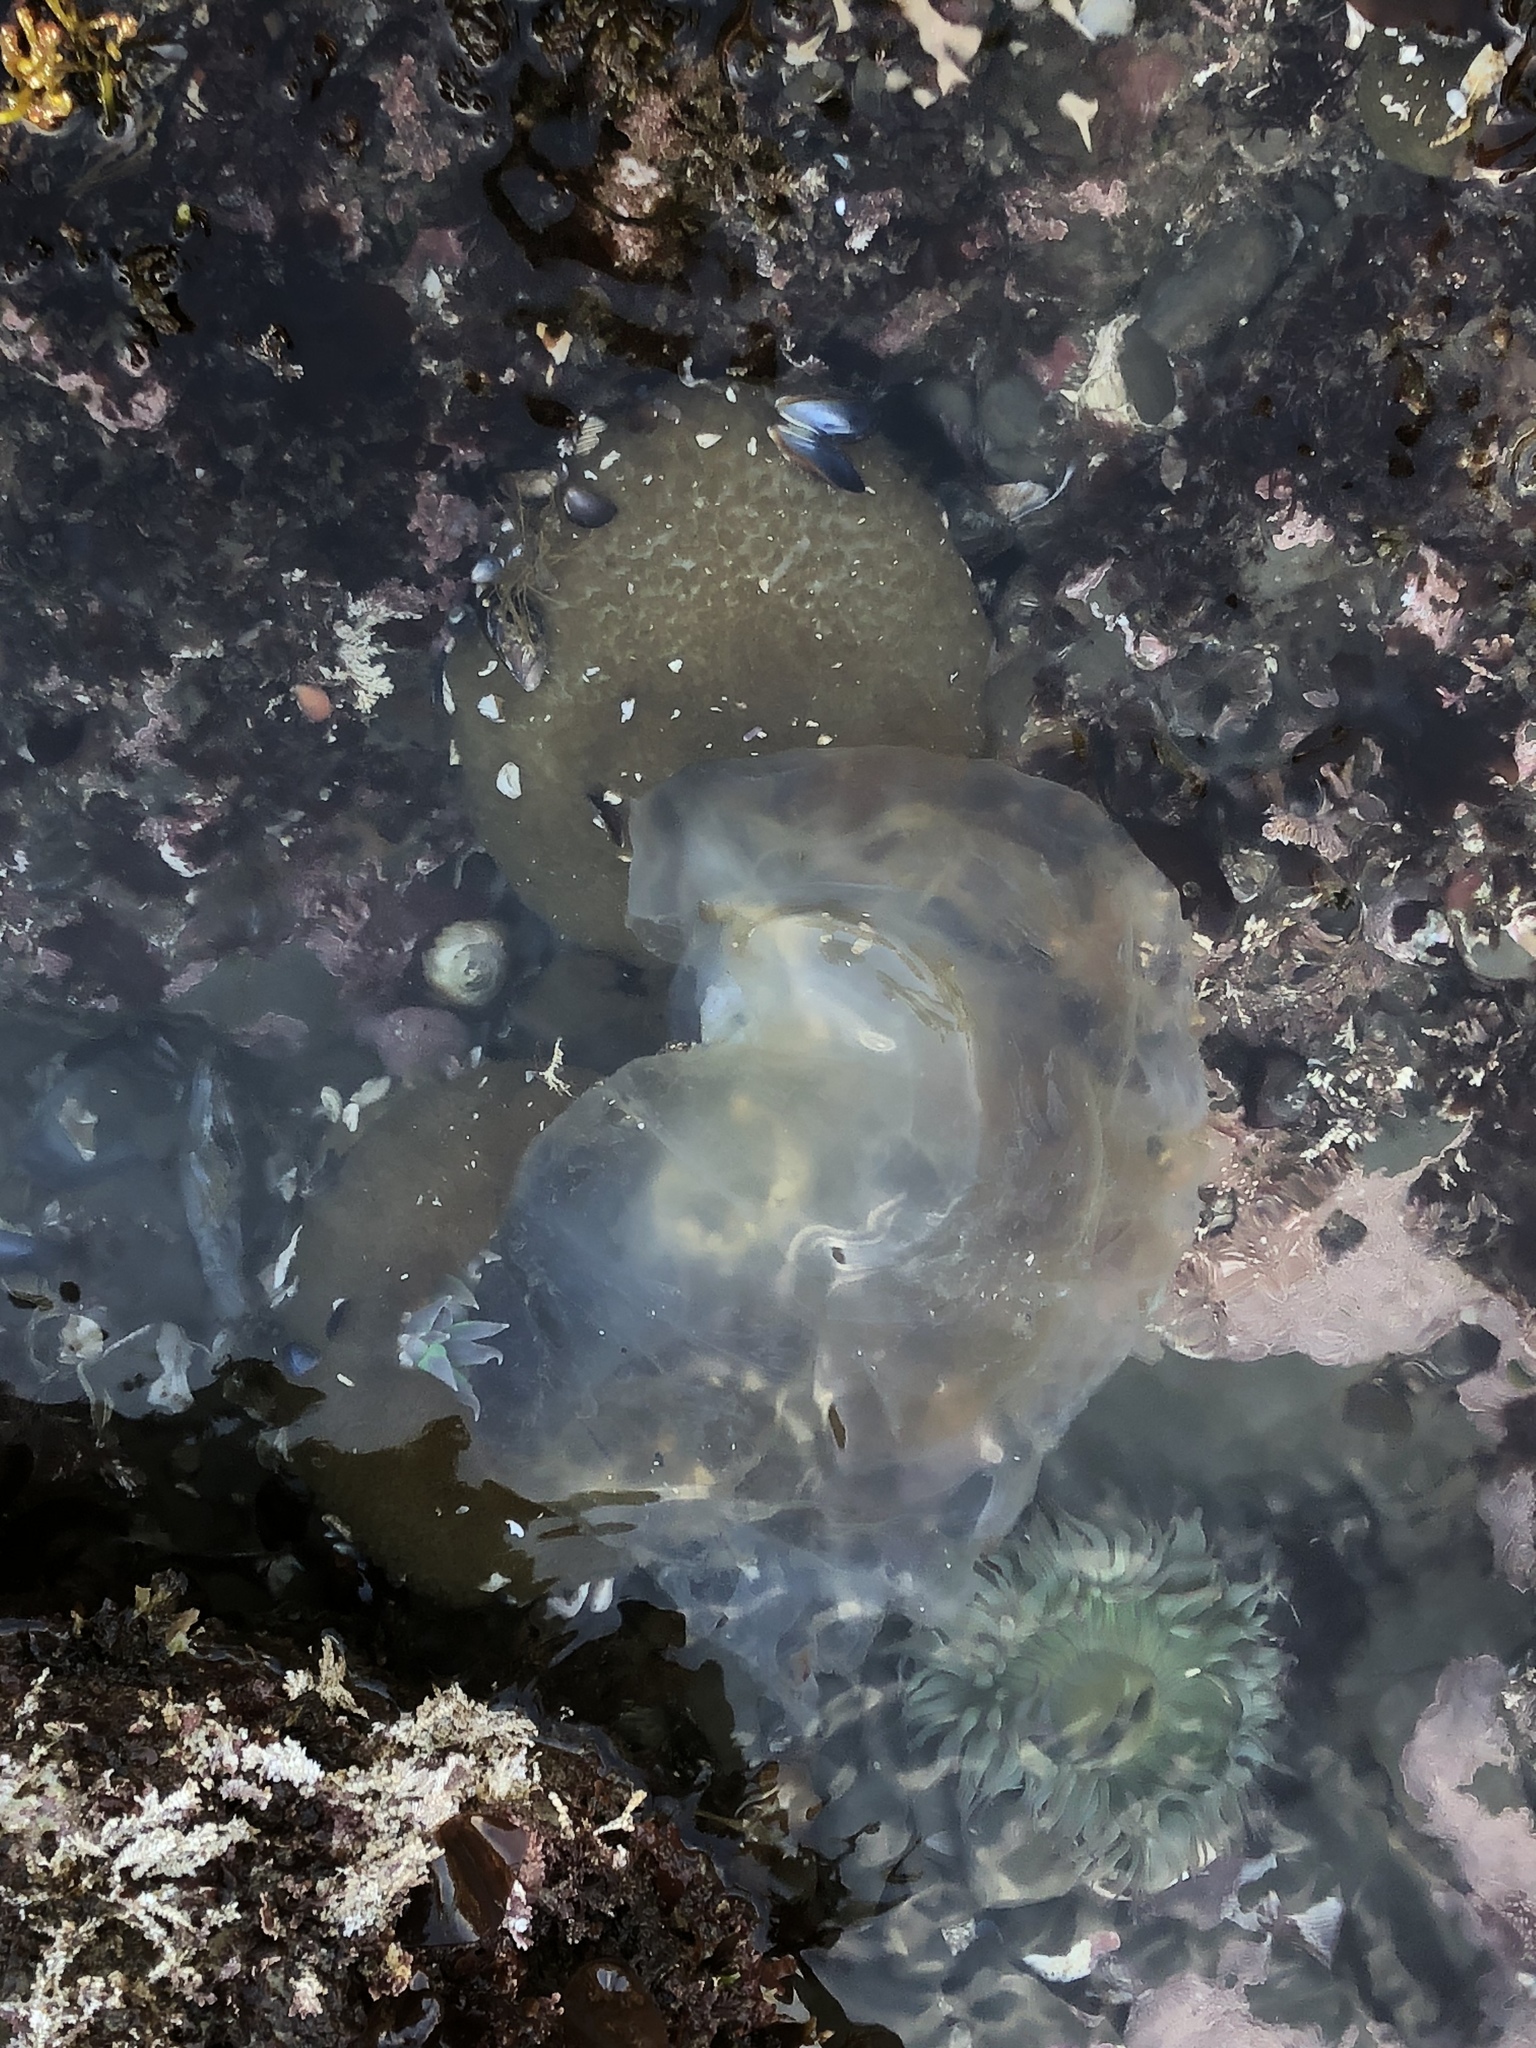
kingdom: Animalia
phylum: Cnidaria
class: Scyphozoa
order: Semaeostomeae
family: Pelagiidae
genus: Chrysaora
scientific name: Chrysaora fuscescens
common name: Sea nettle
